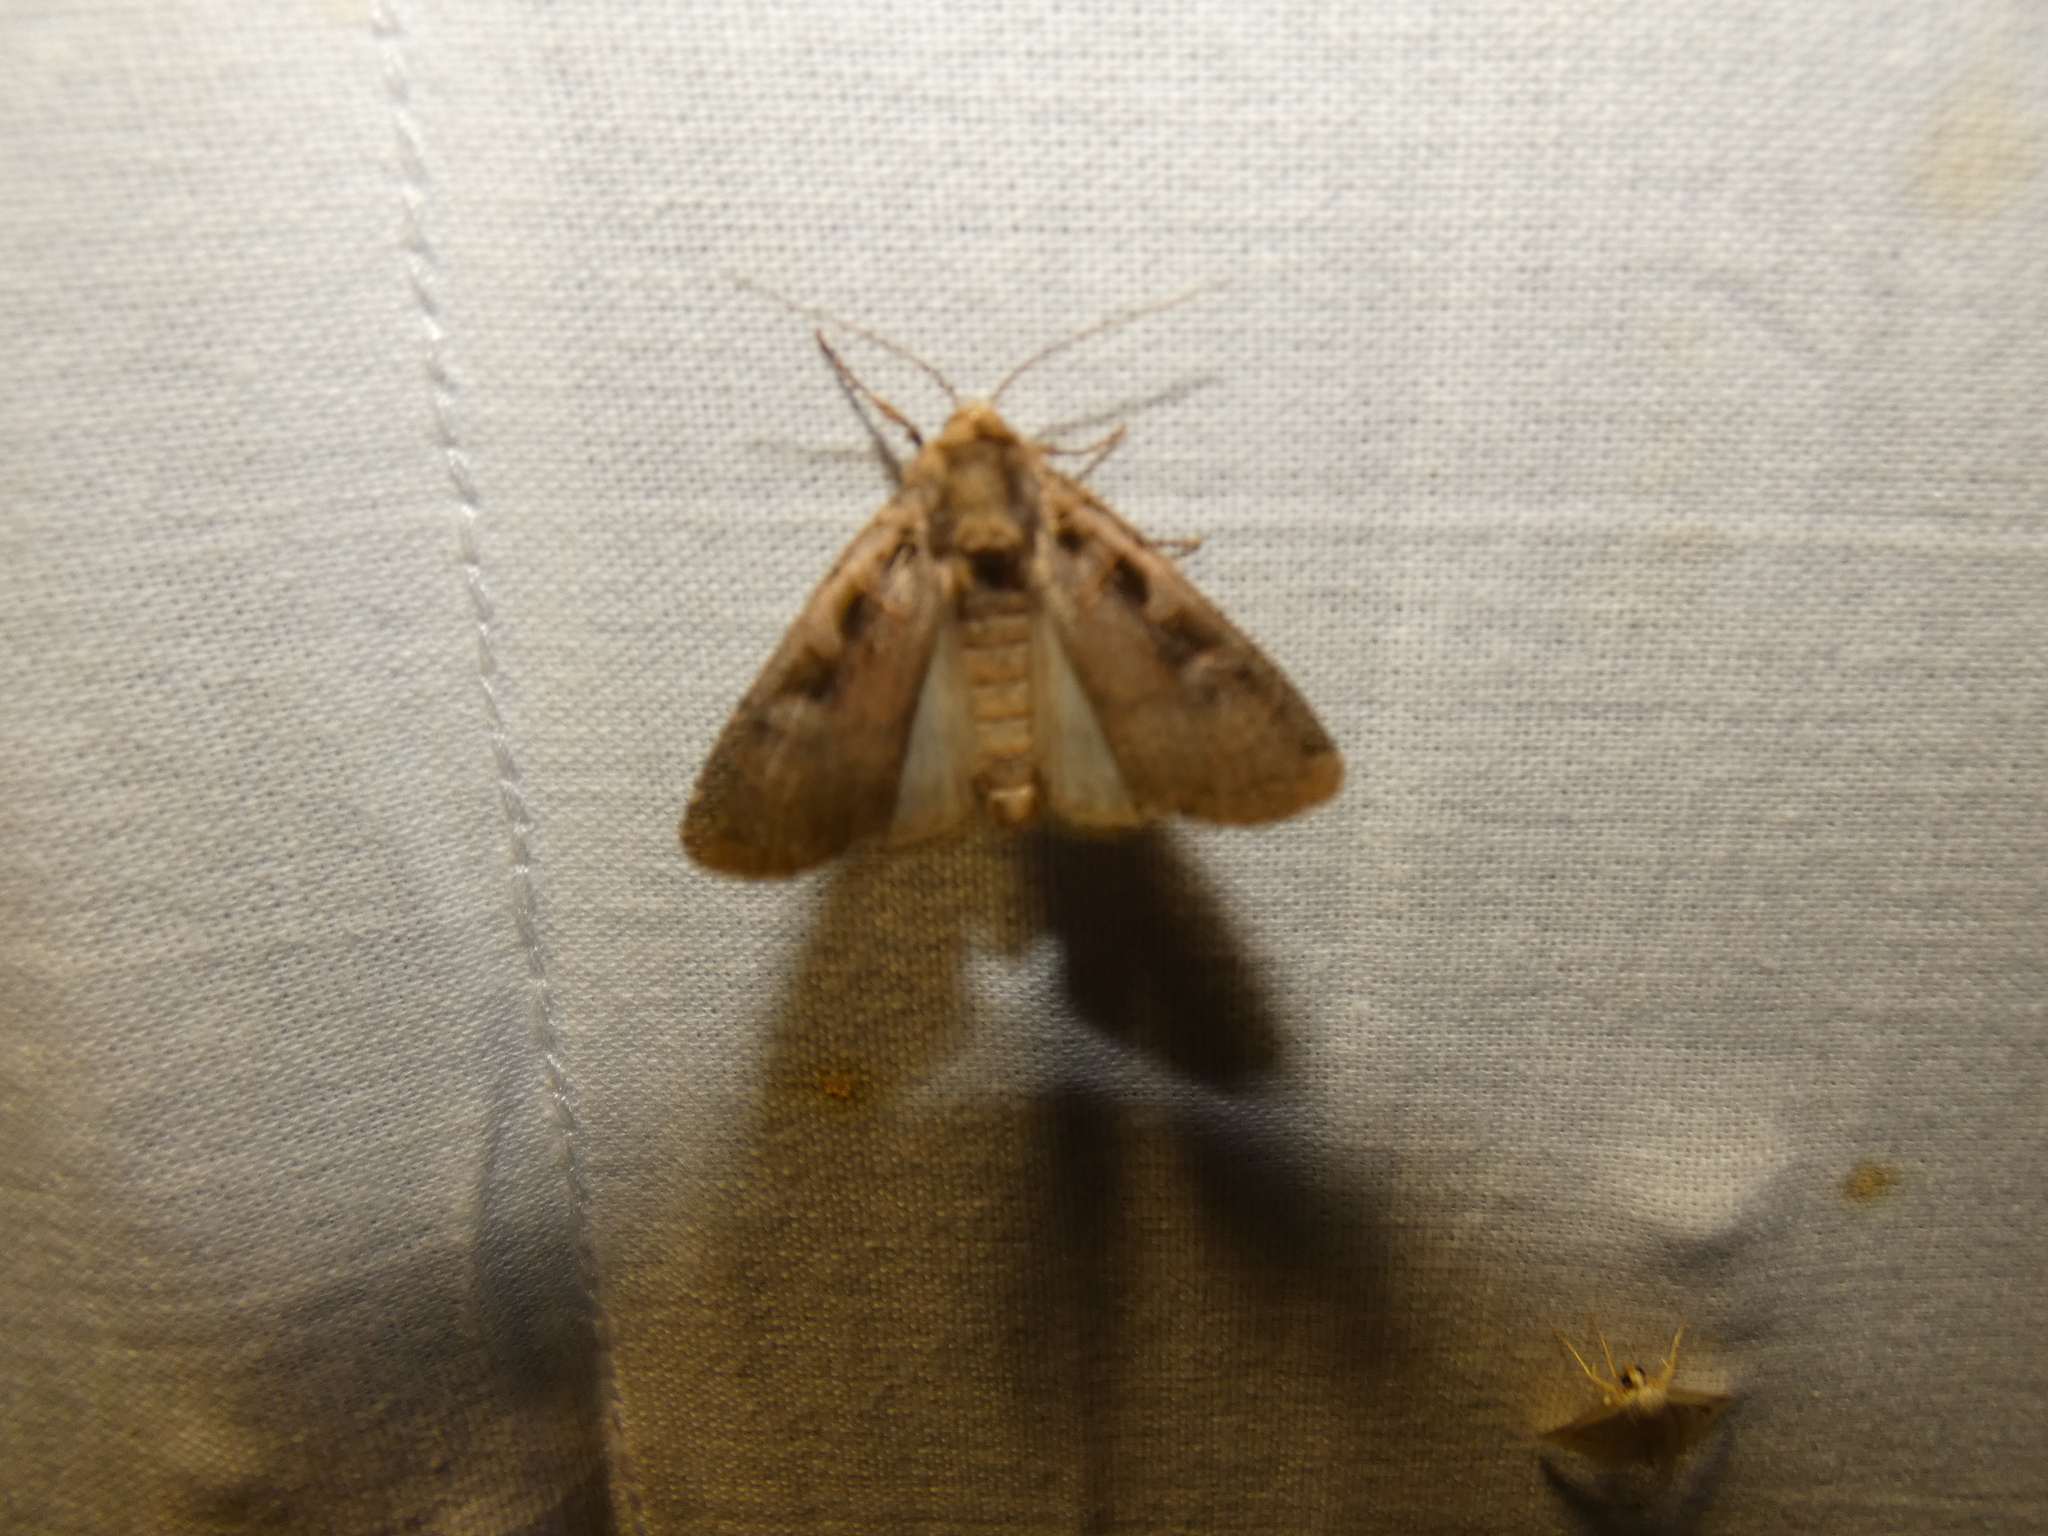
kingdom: Animalia
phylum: Arthropoda
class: Insecta
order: Lepidoptera
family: Noctuidae
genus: Xestia
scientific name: Xestia ditrapezium
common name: Triple-spotted clay
